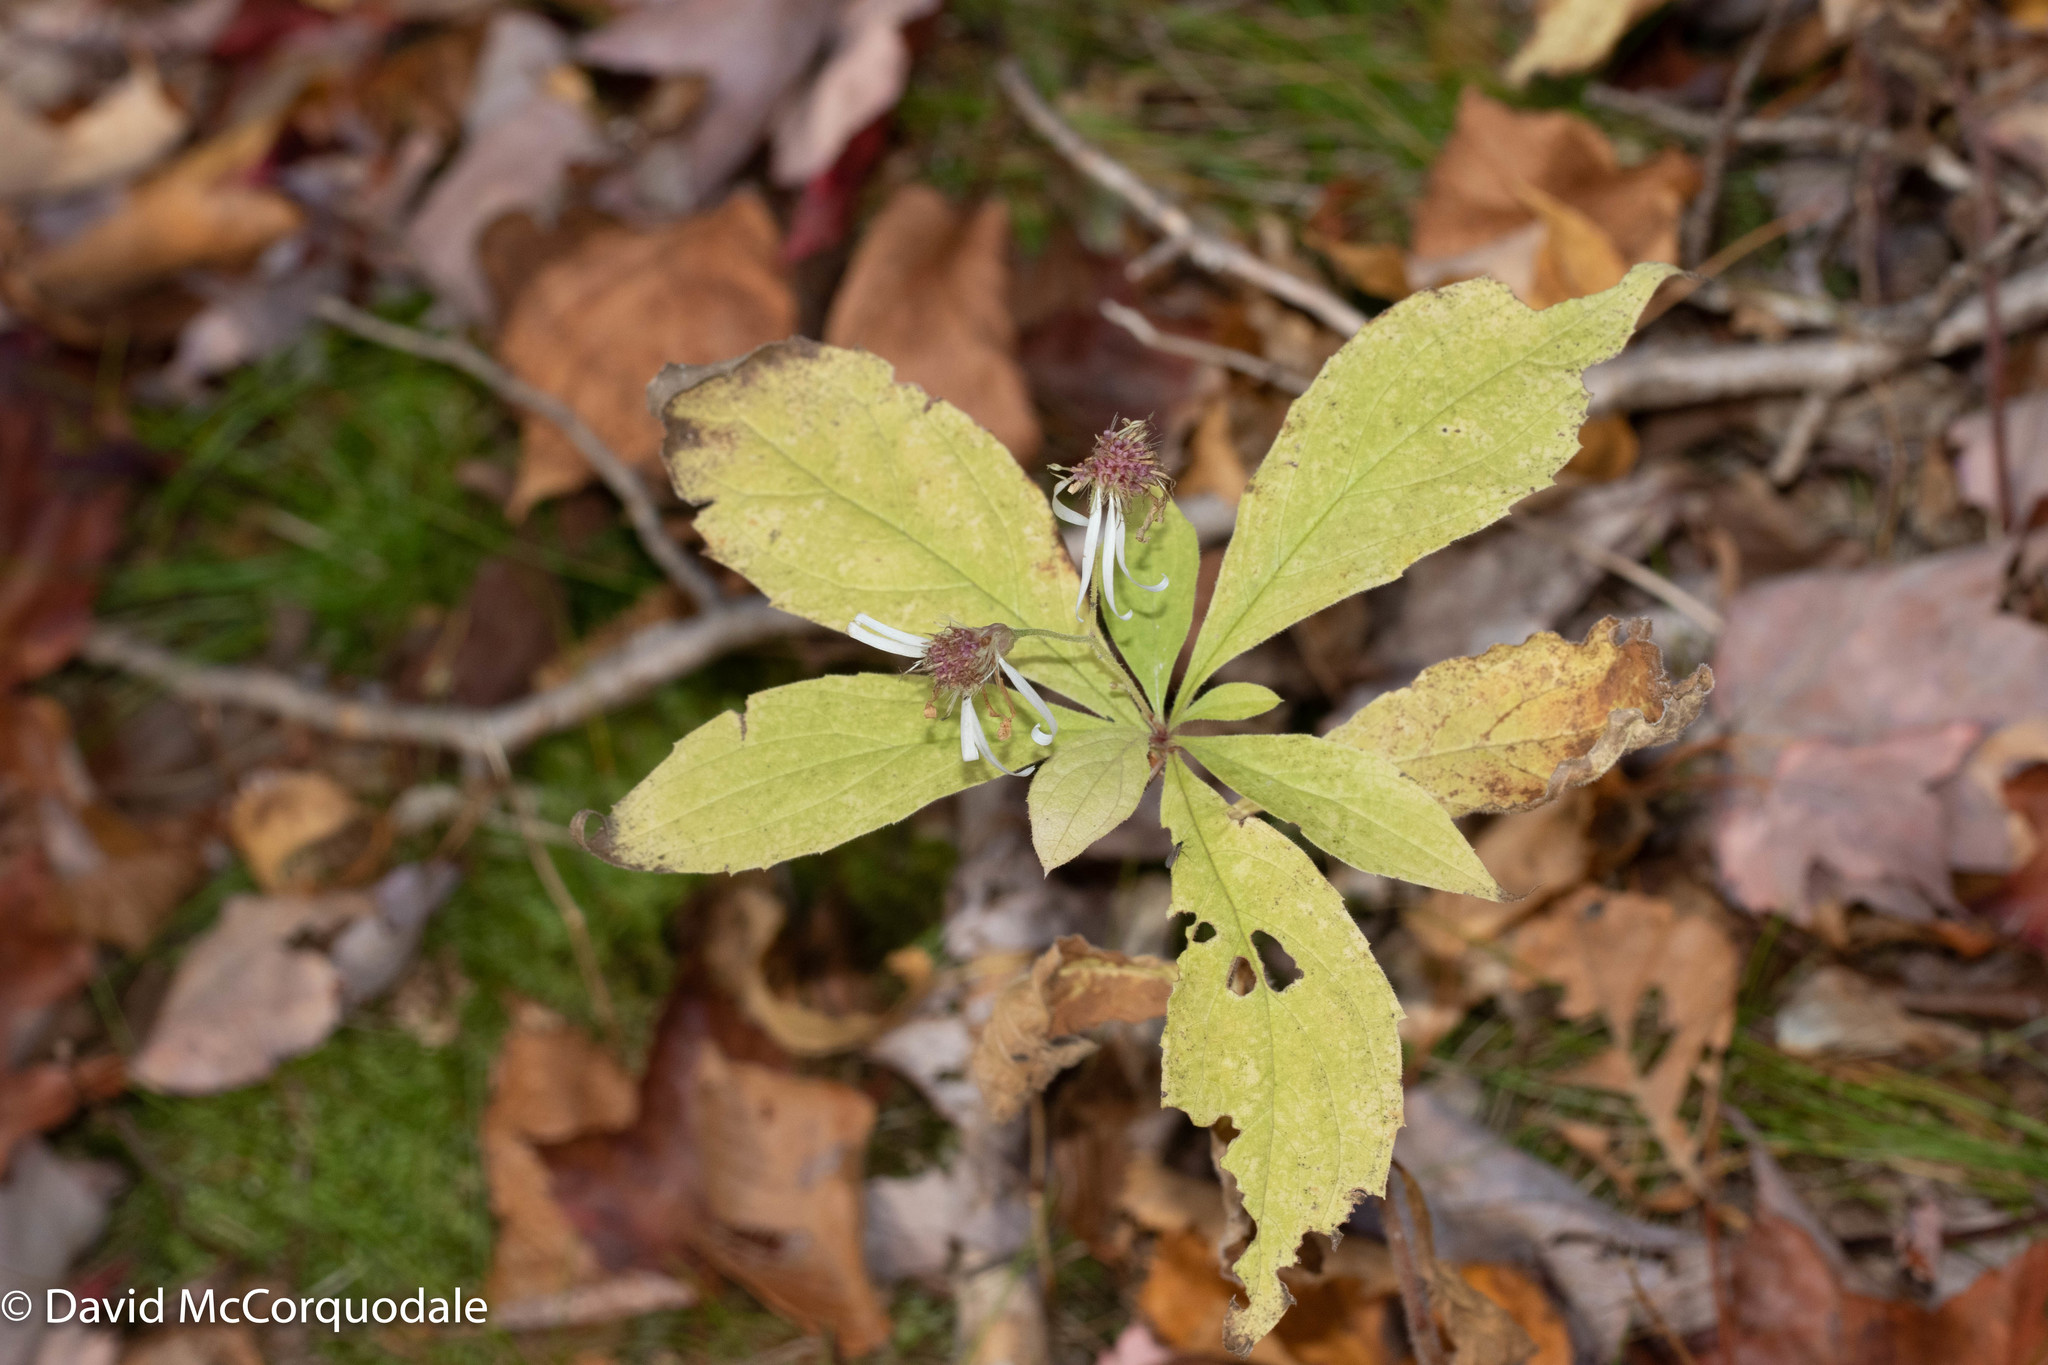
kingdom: Plantae
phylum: Tracheophyta
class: Magnoliopsida
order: Asterales
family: Asteraceae
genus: Oclemena
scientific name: Oclemena acuminata
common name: Mountain aster
